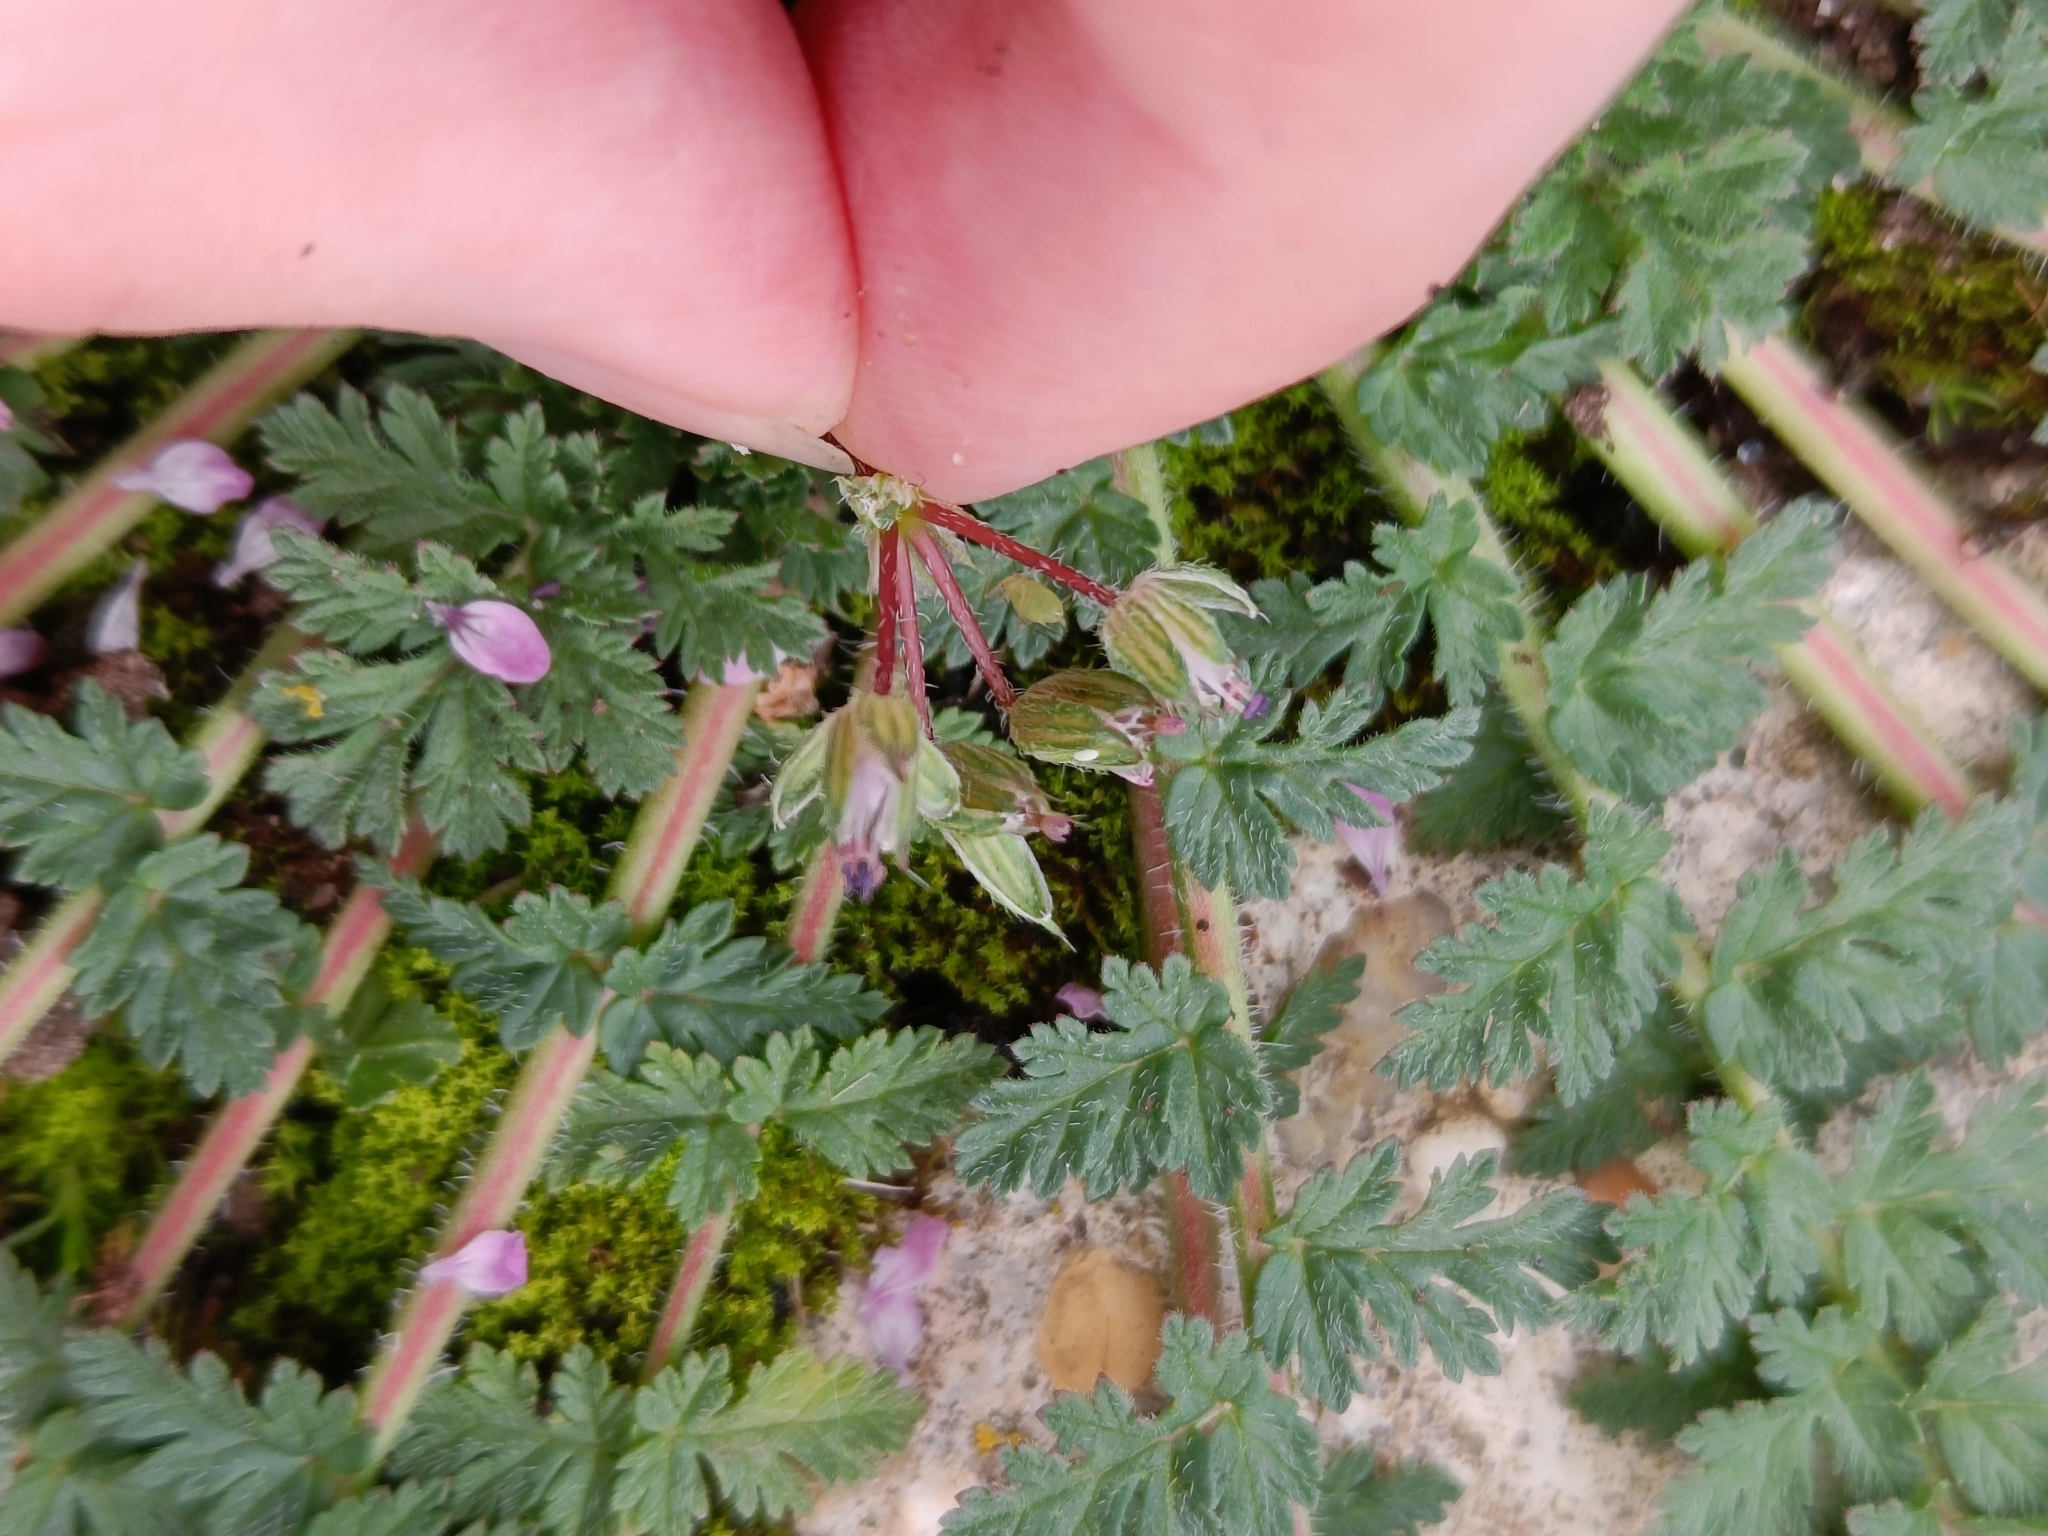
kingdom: Plantae
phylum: Tracheophyta
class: Magnoliopsida
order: Geraniales
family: Geraniaceae
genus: Erodium
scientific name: Erodium cicutarium
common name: Common stork's-bill
